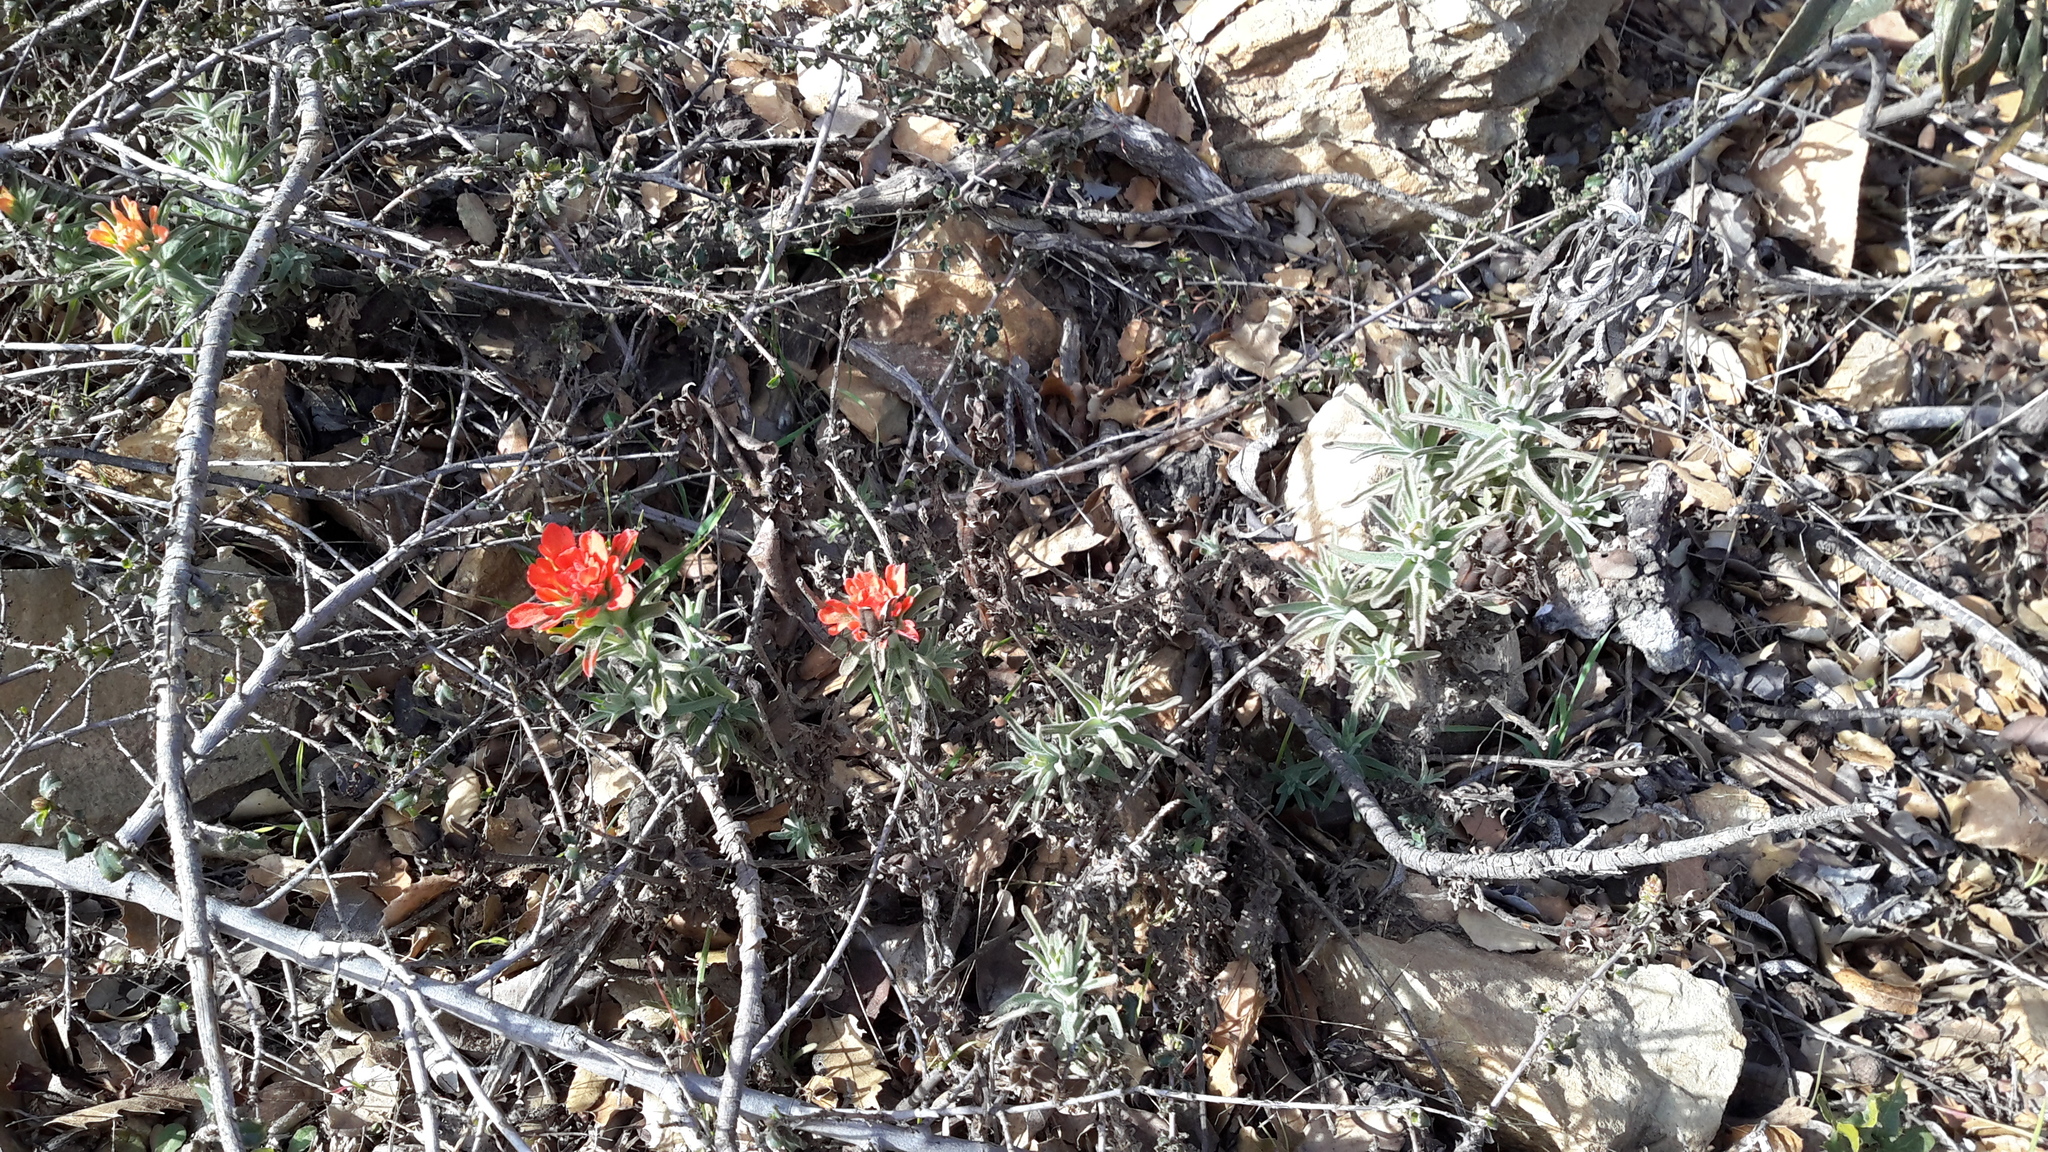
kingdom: Plantae
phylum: Tracheophyta
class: Magnoliopsida
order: Lamiales
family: Orobanchaceae
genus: Castilleja
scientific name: Castilleja foliolosa
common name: Woolly indian paintbrush
